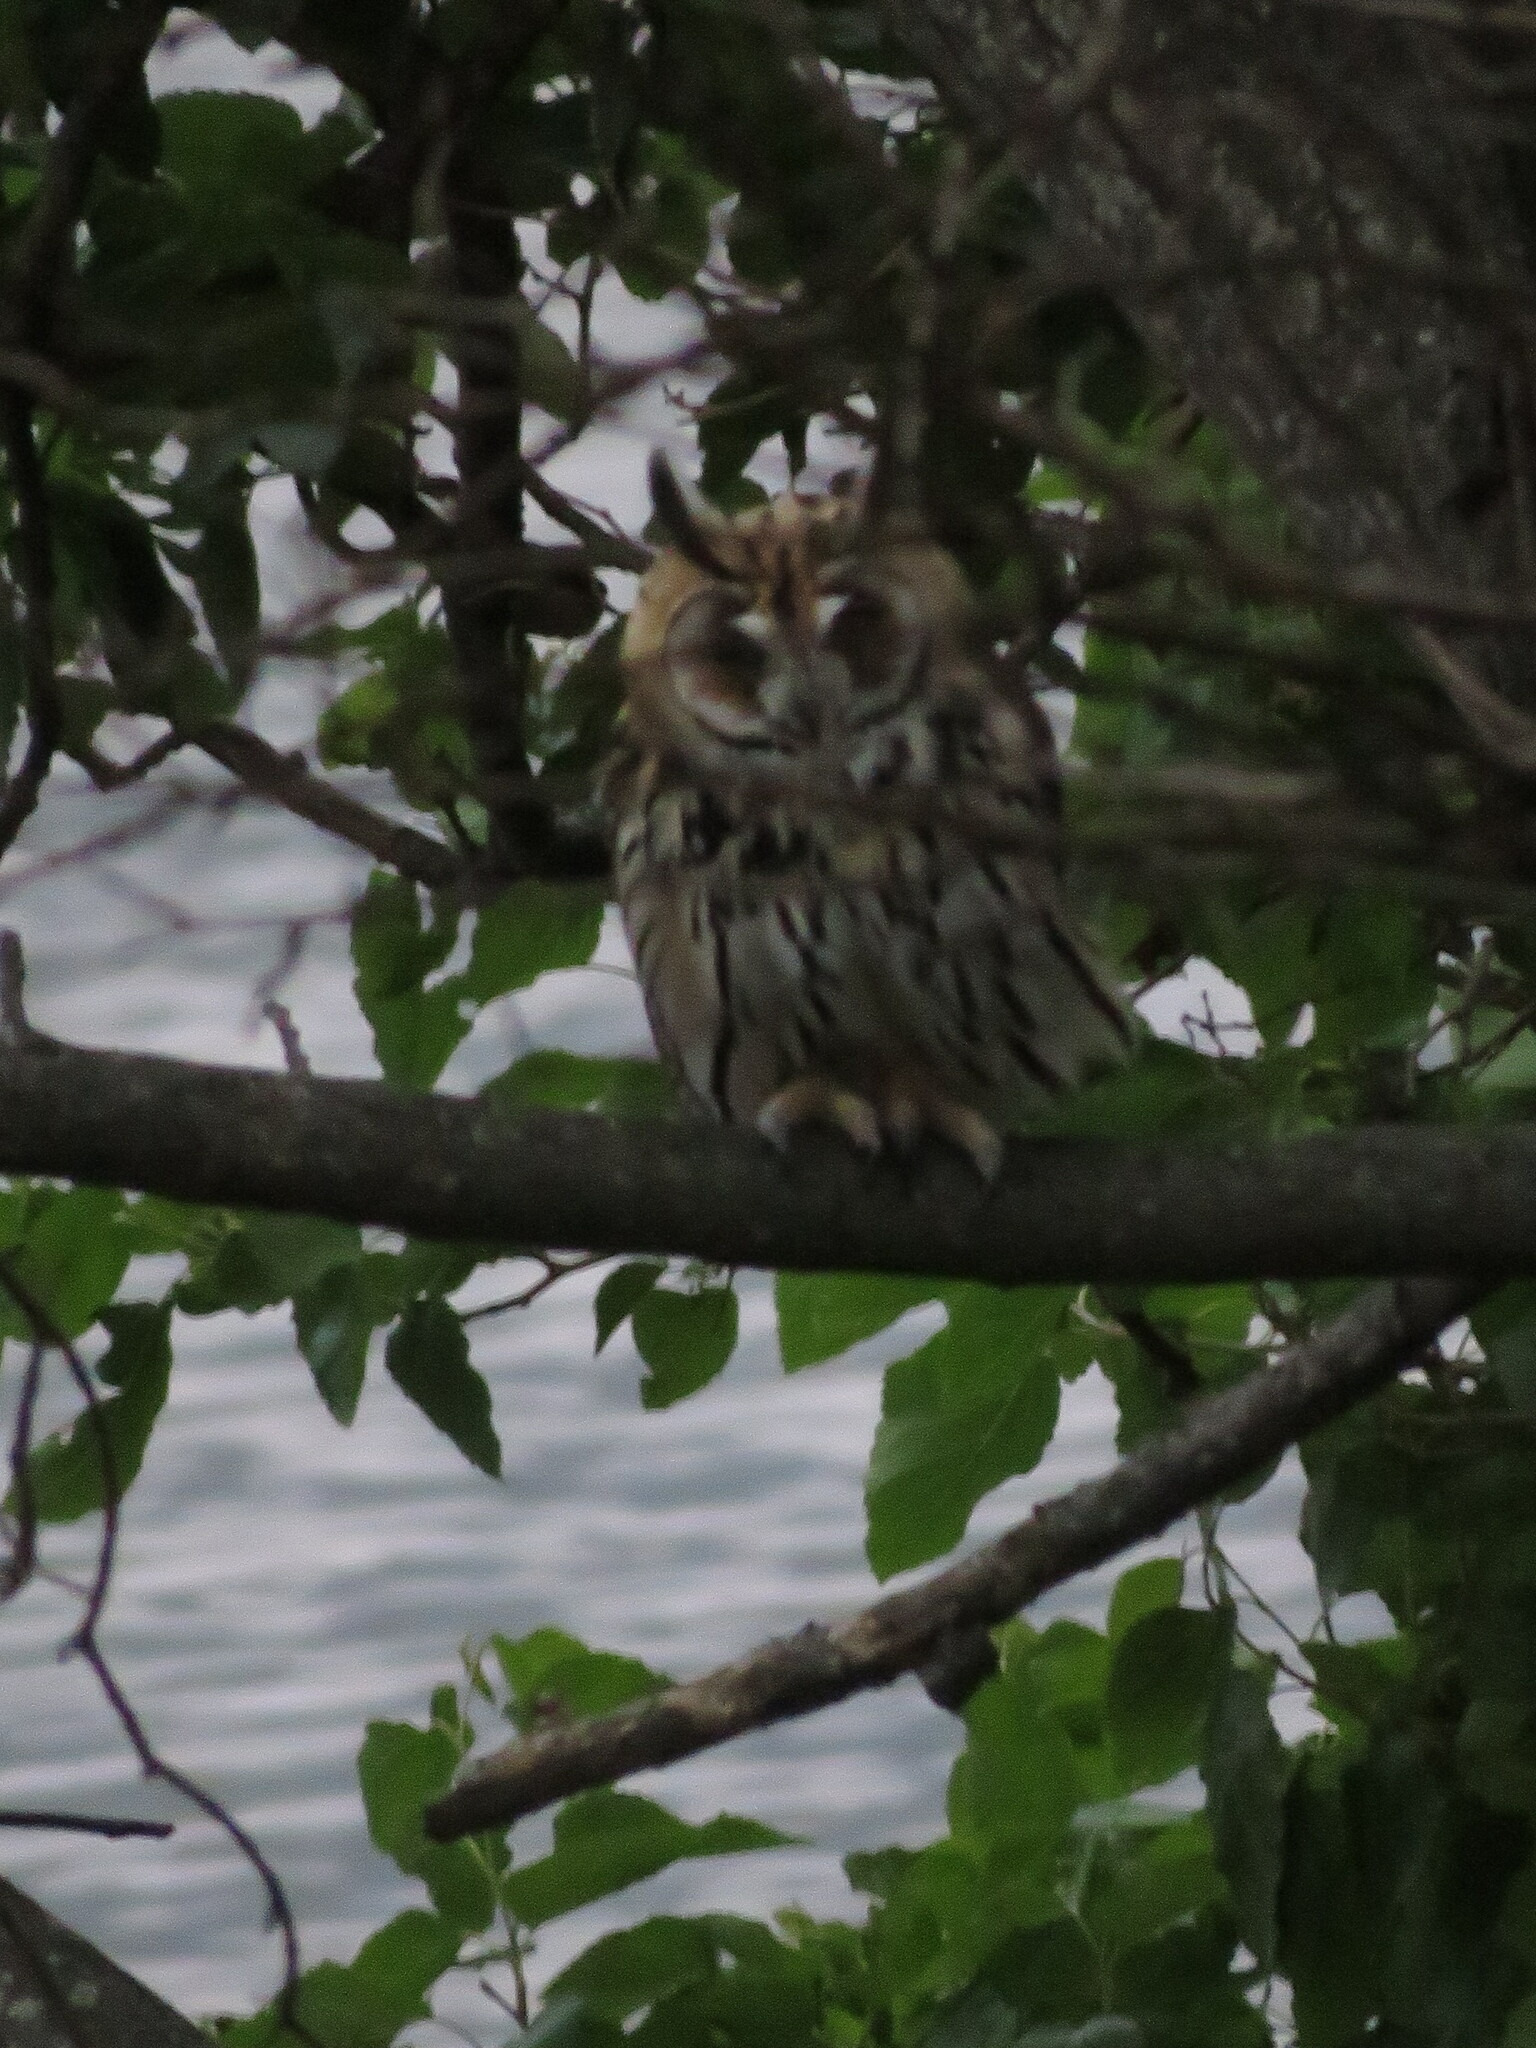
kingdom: Animalia
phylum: Chordata
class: Aves
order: Strigiformes
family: Strigidae
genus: Pseudoscops
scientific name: Pseudoscops clamator
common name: Striped owl
